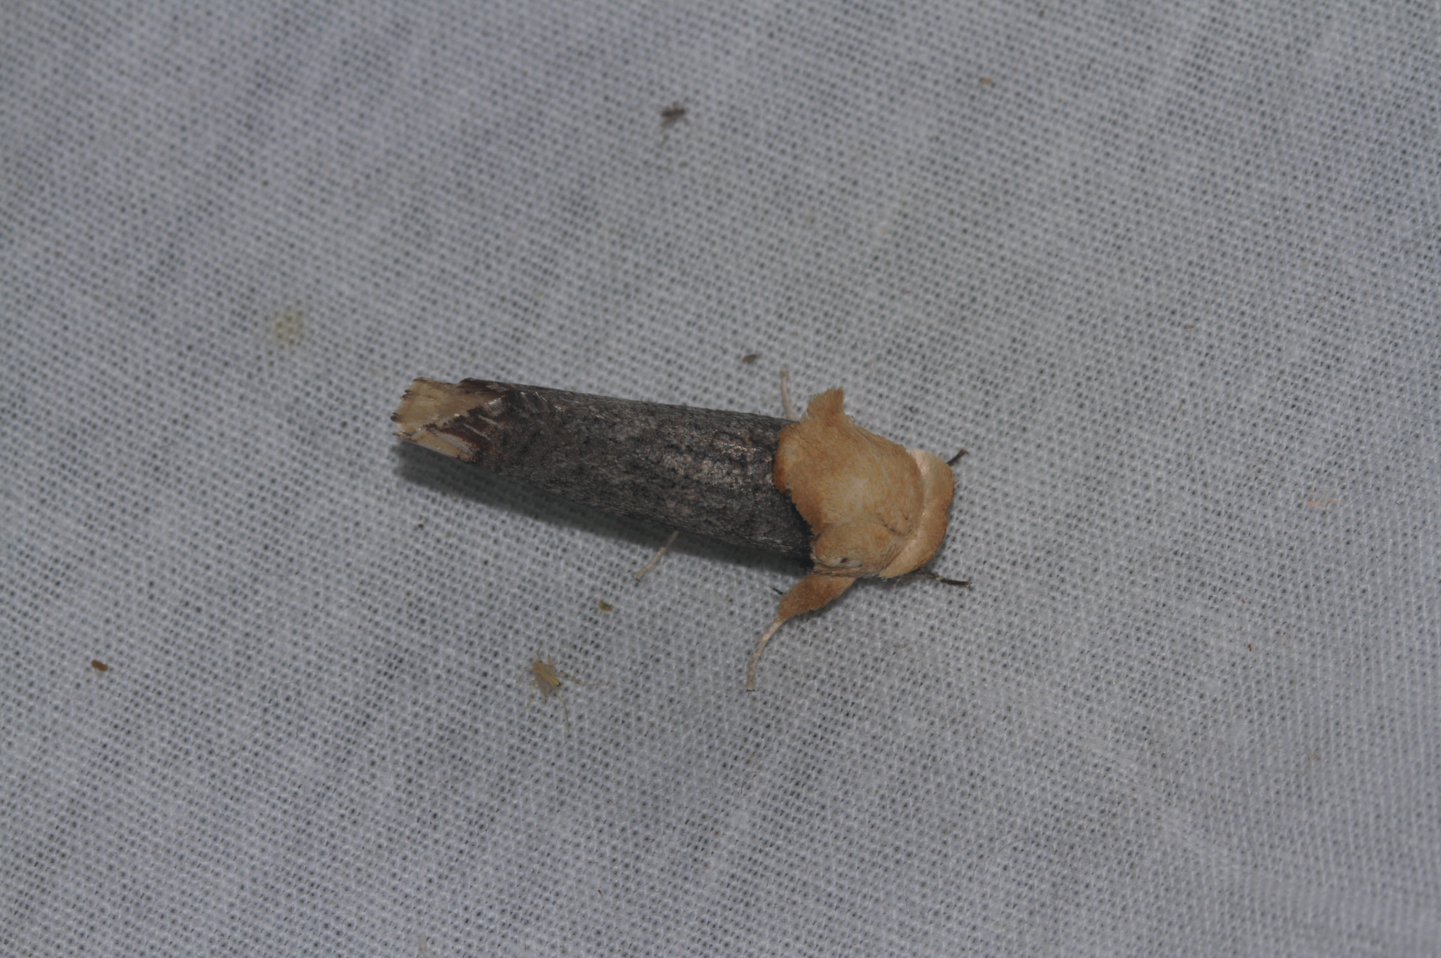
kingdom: Animalia
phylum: Arthropoda
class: Insecta
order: Lepidoptera
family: Dudgeoneidae
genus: Magulacra
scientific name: Magulacra niveogrisea
